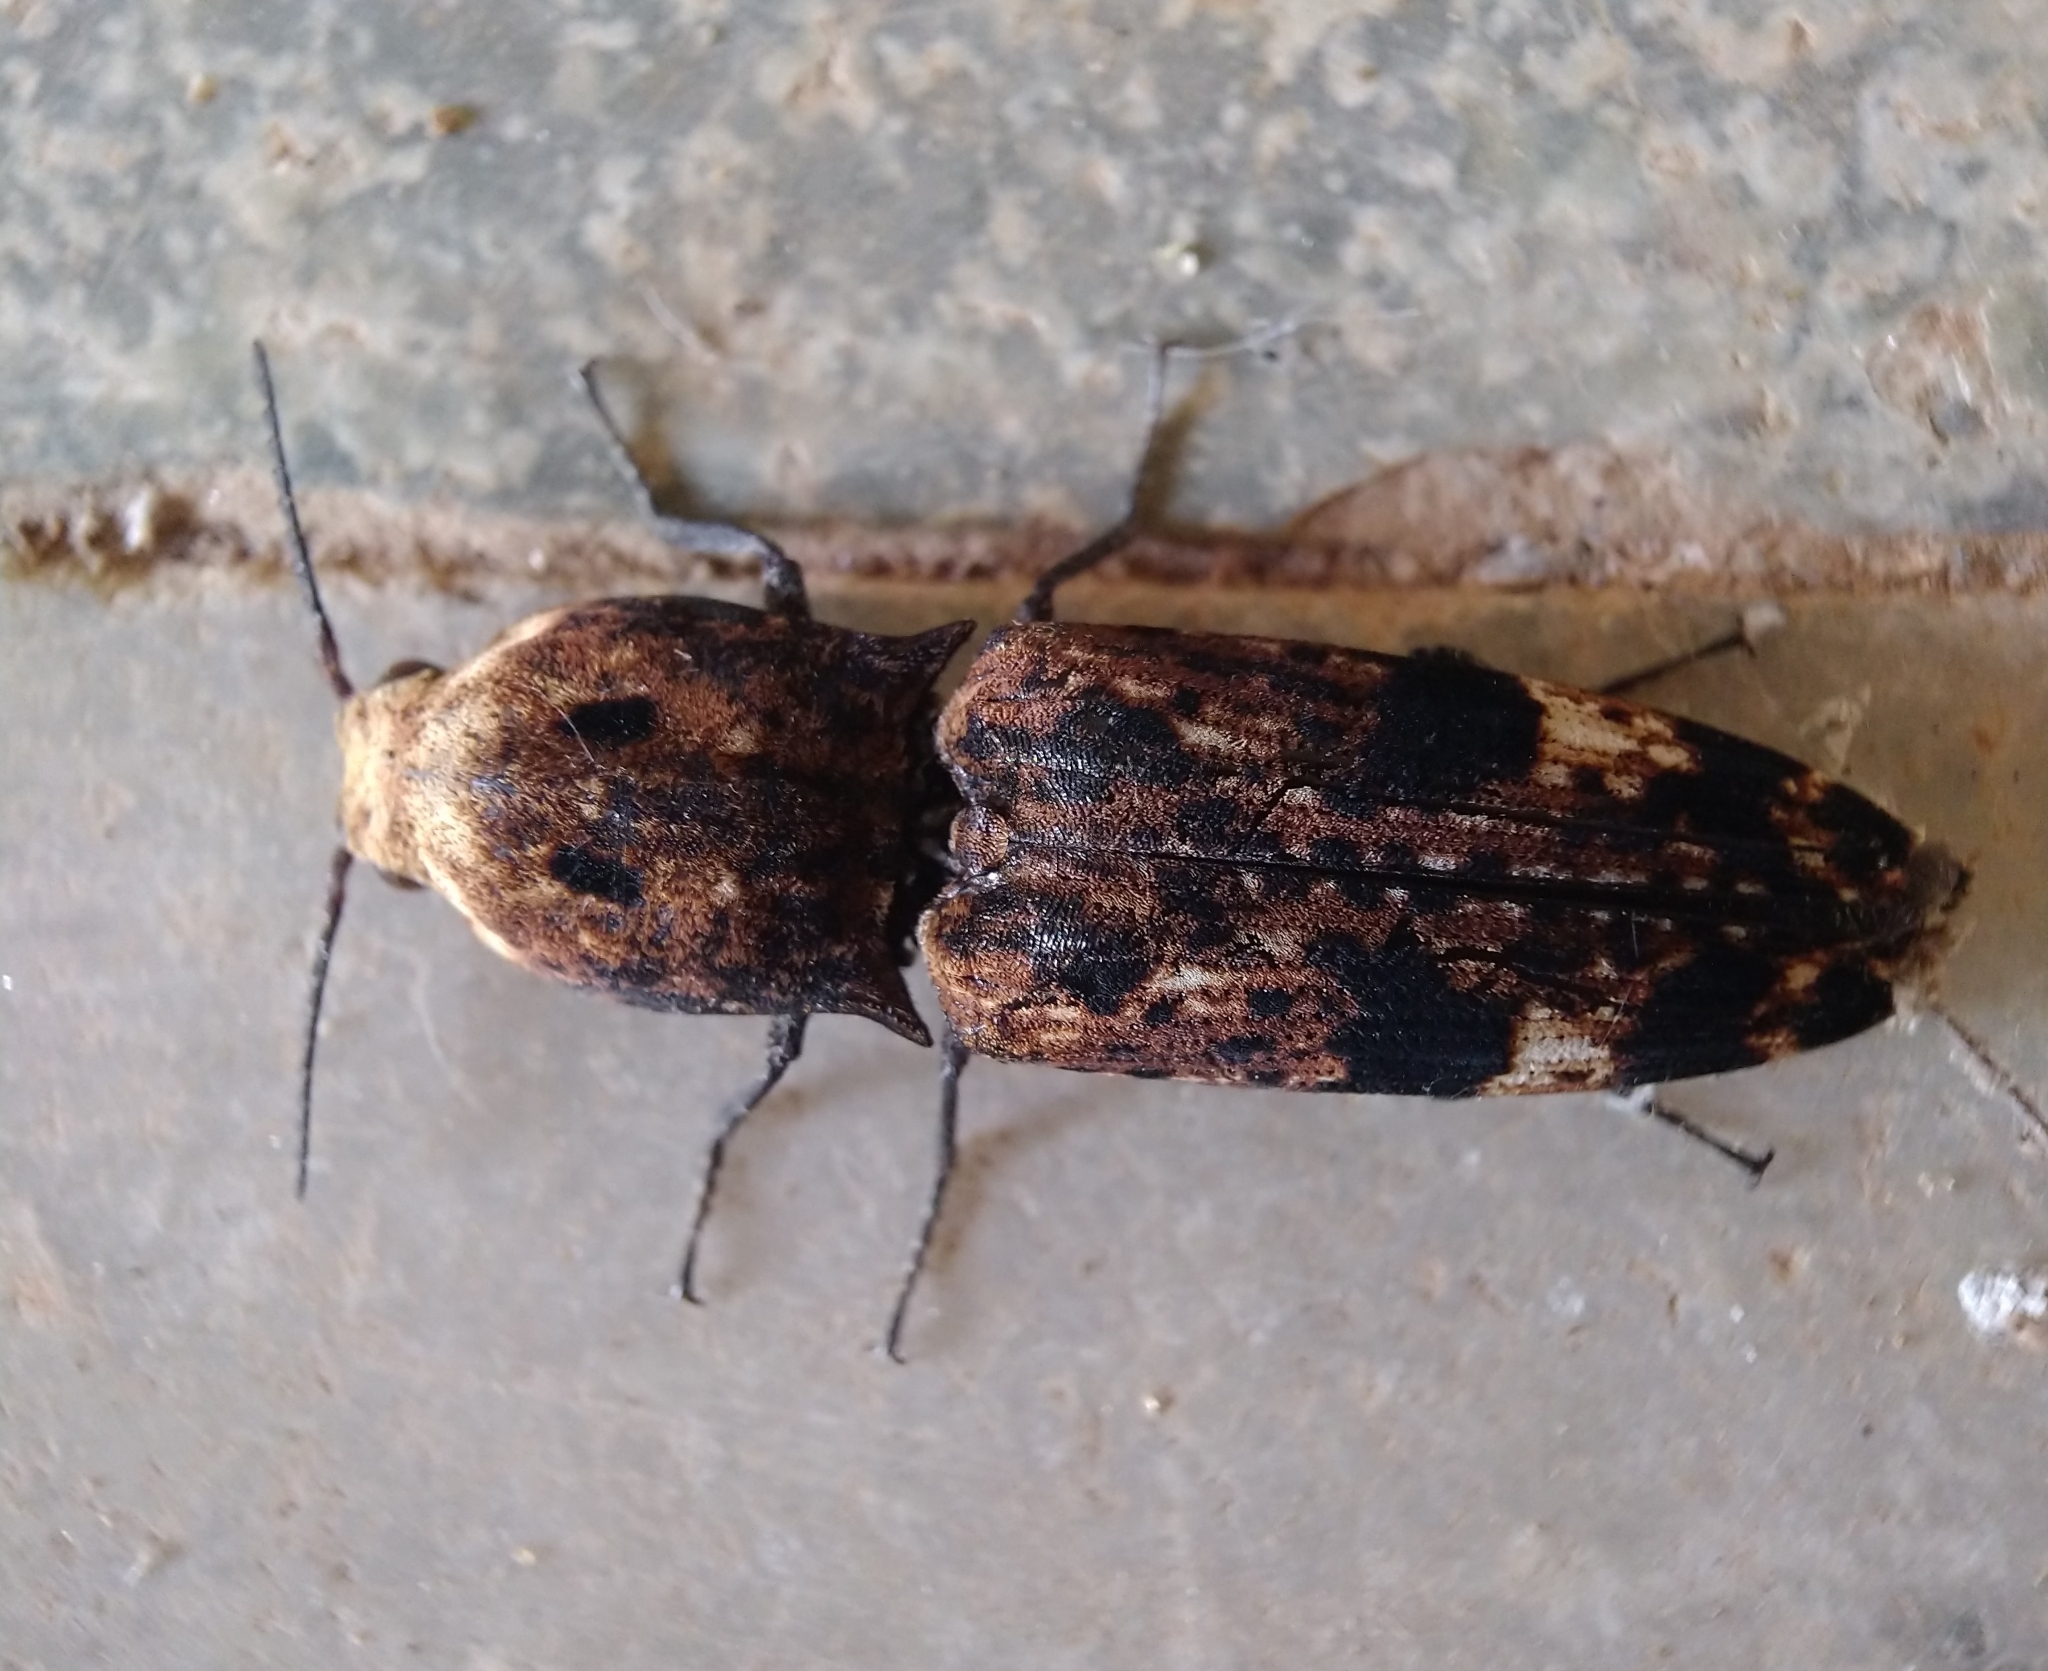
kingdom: Animalia
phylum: Arthropoda
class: Insecta
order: Coleoptera
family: Elateridae
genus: Cryptalaus
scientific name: Cryptalaus alveolatus
